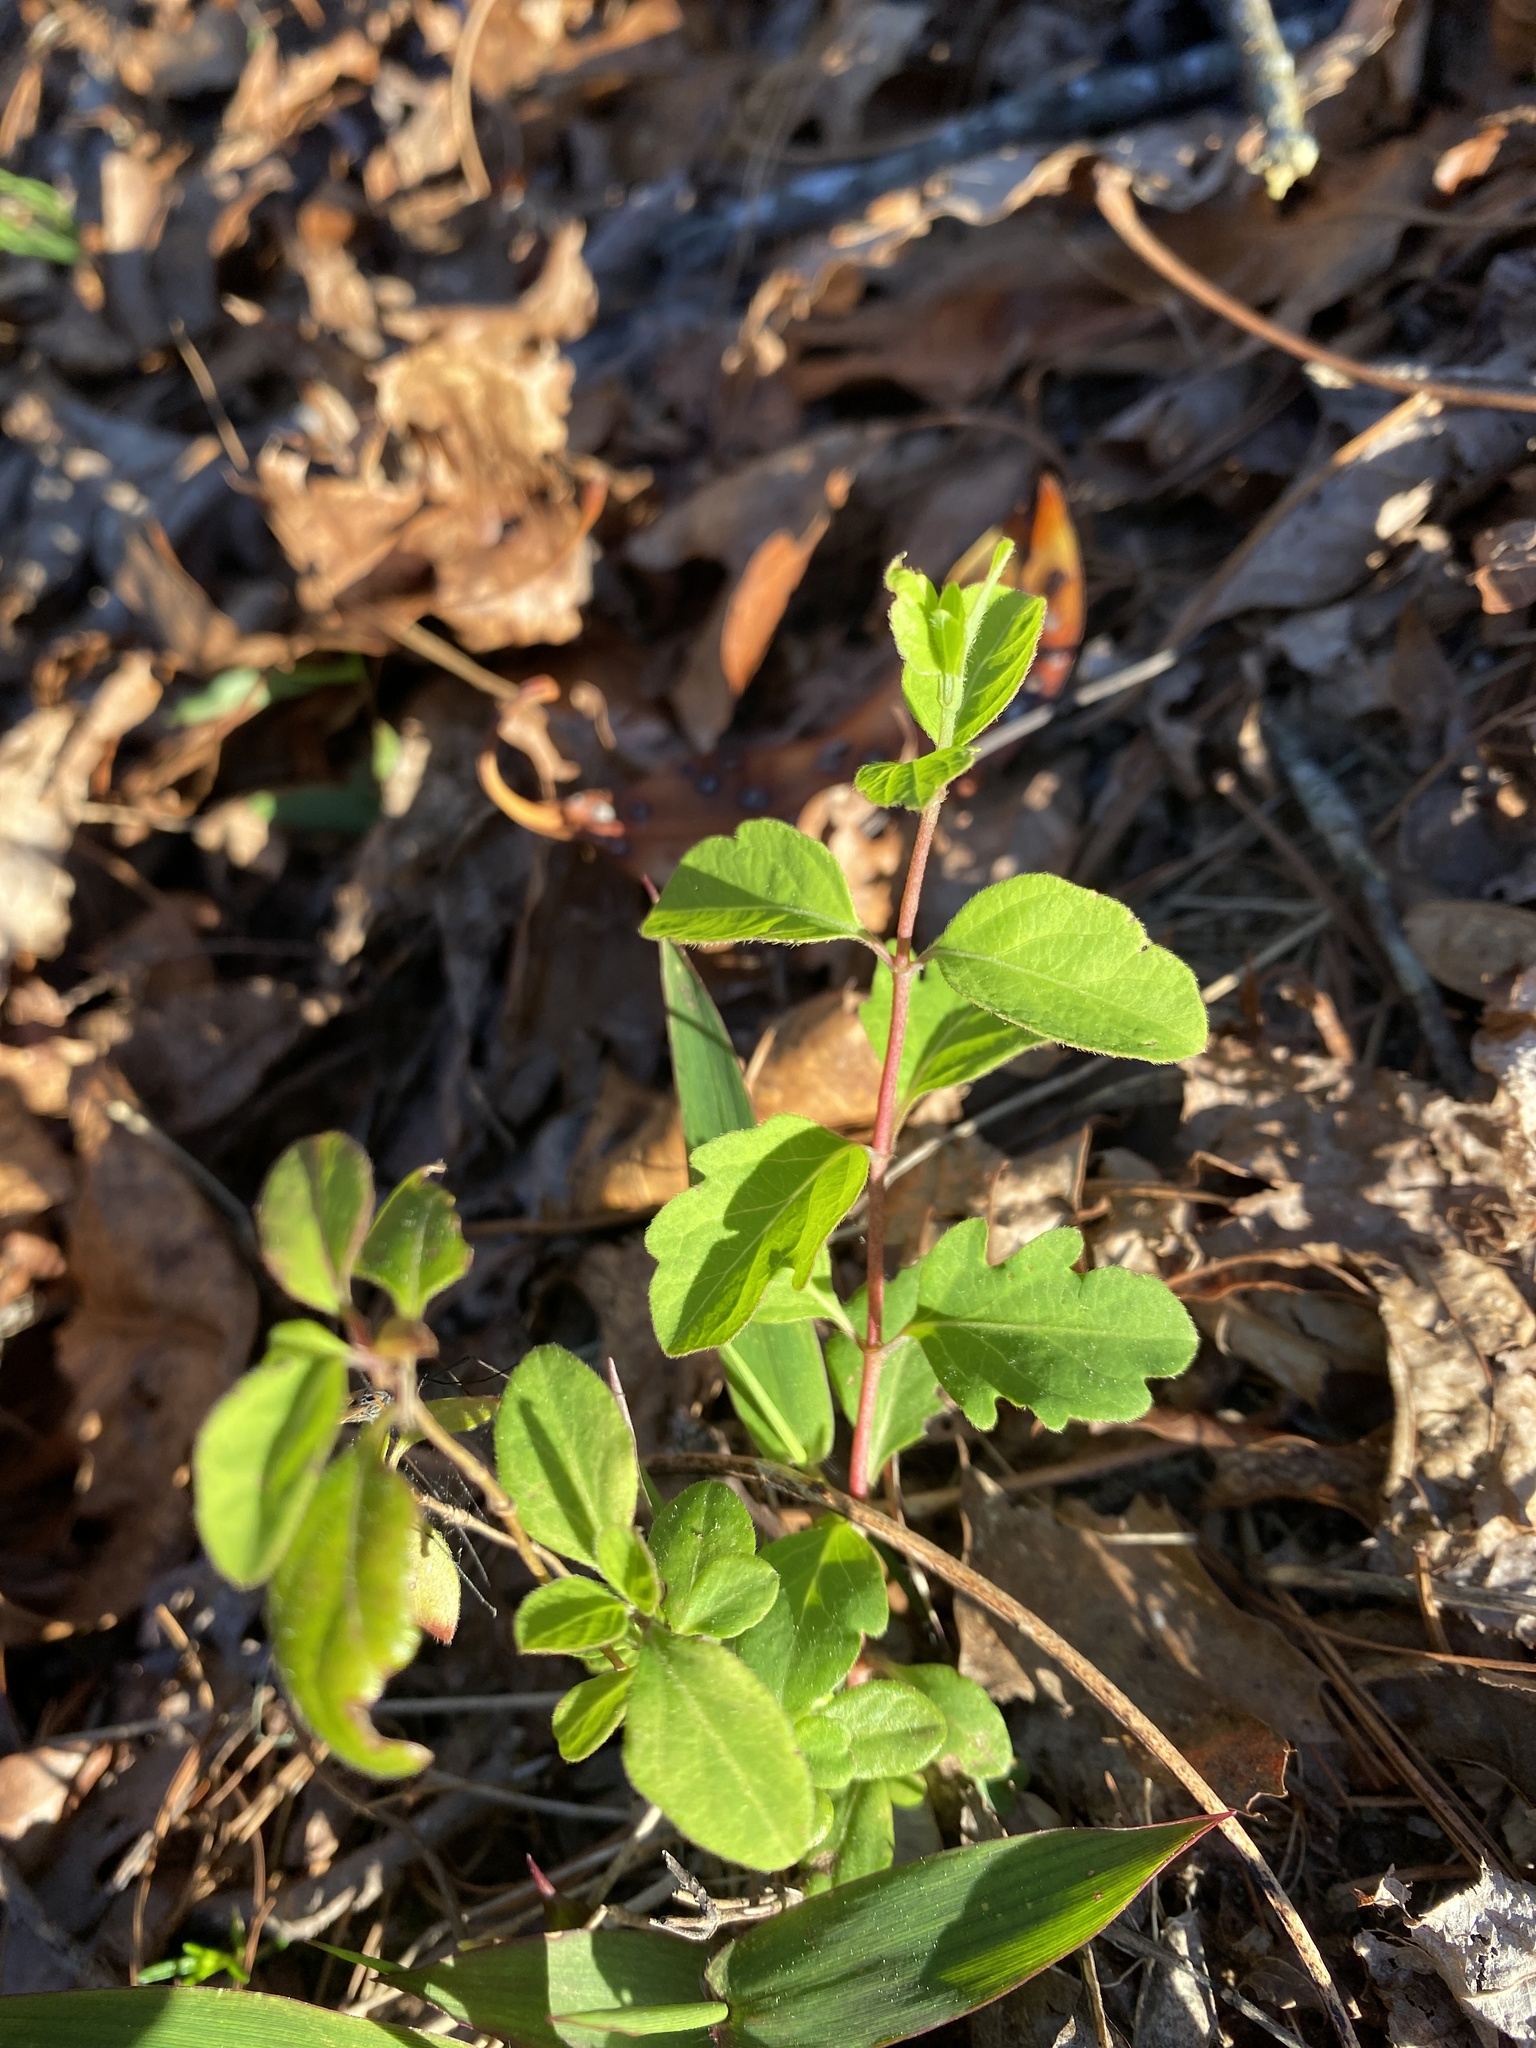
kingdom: Plantae
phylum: Tracheophyta
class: Magnoliopsida
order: Dipsacales
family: Caprifoliaceae
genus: Lonicera
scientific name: Lonicera japonica
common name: Japanese honeysuckle
